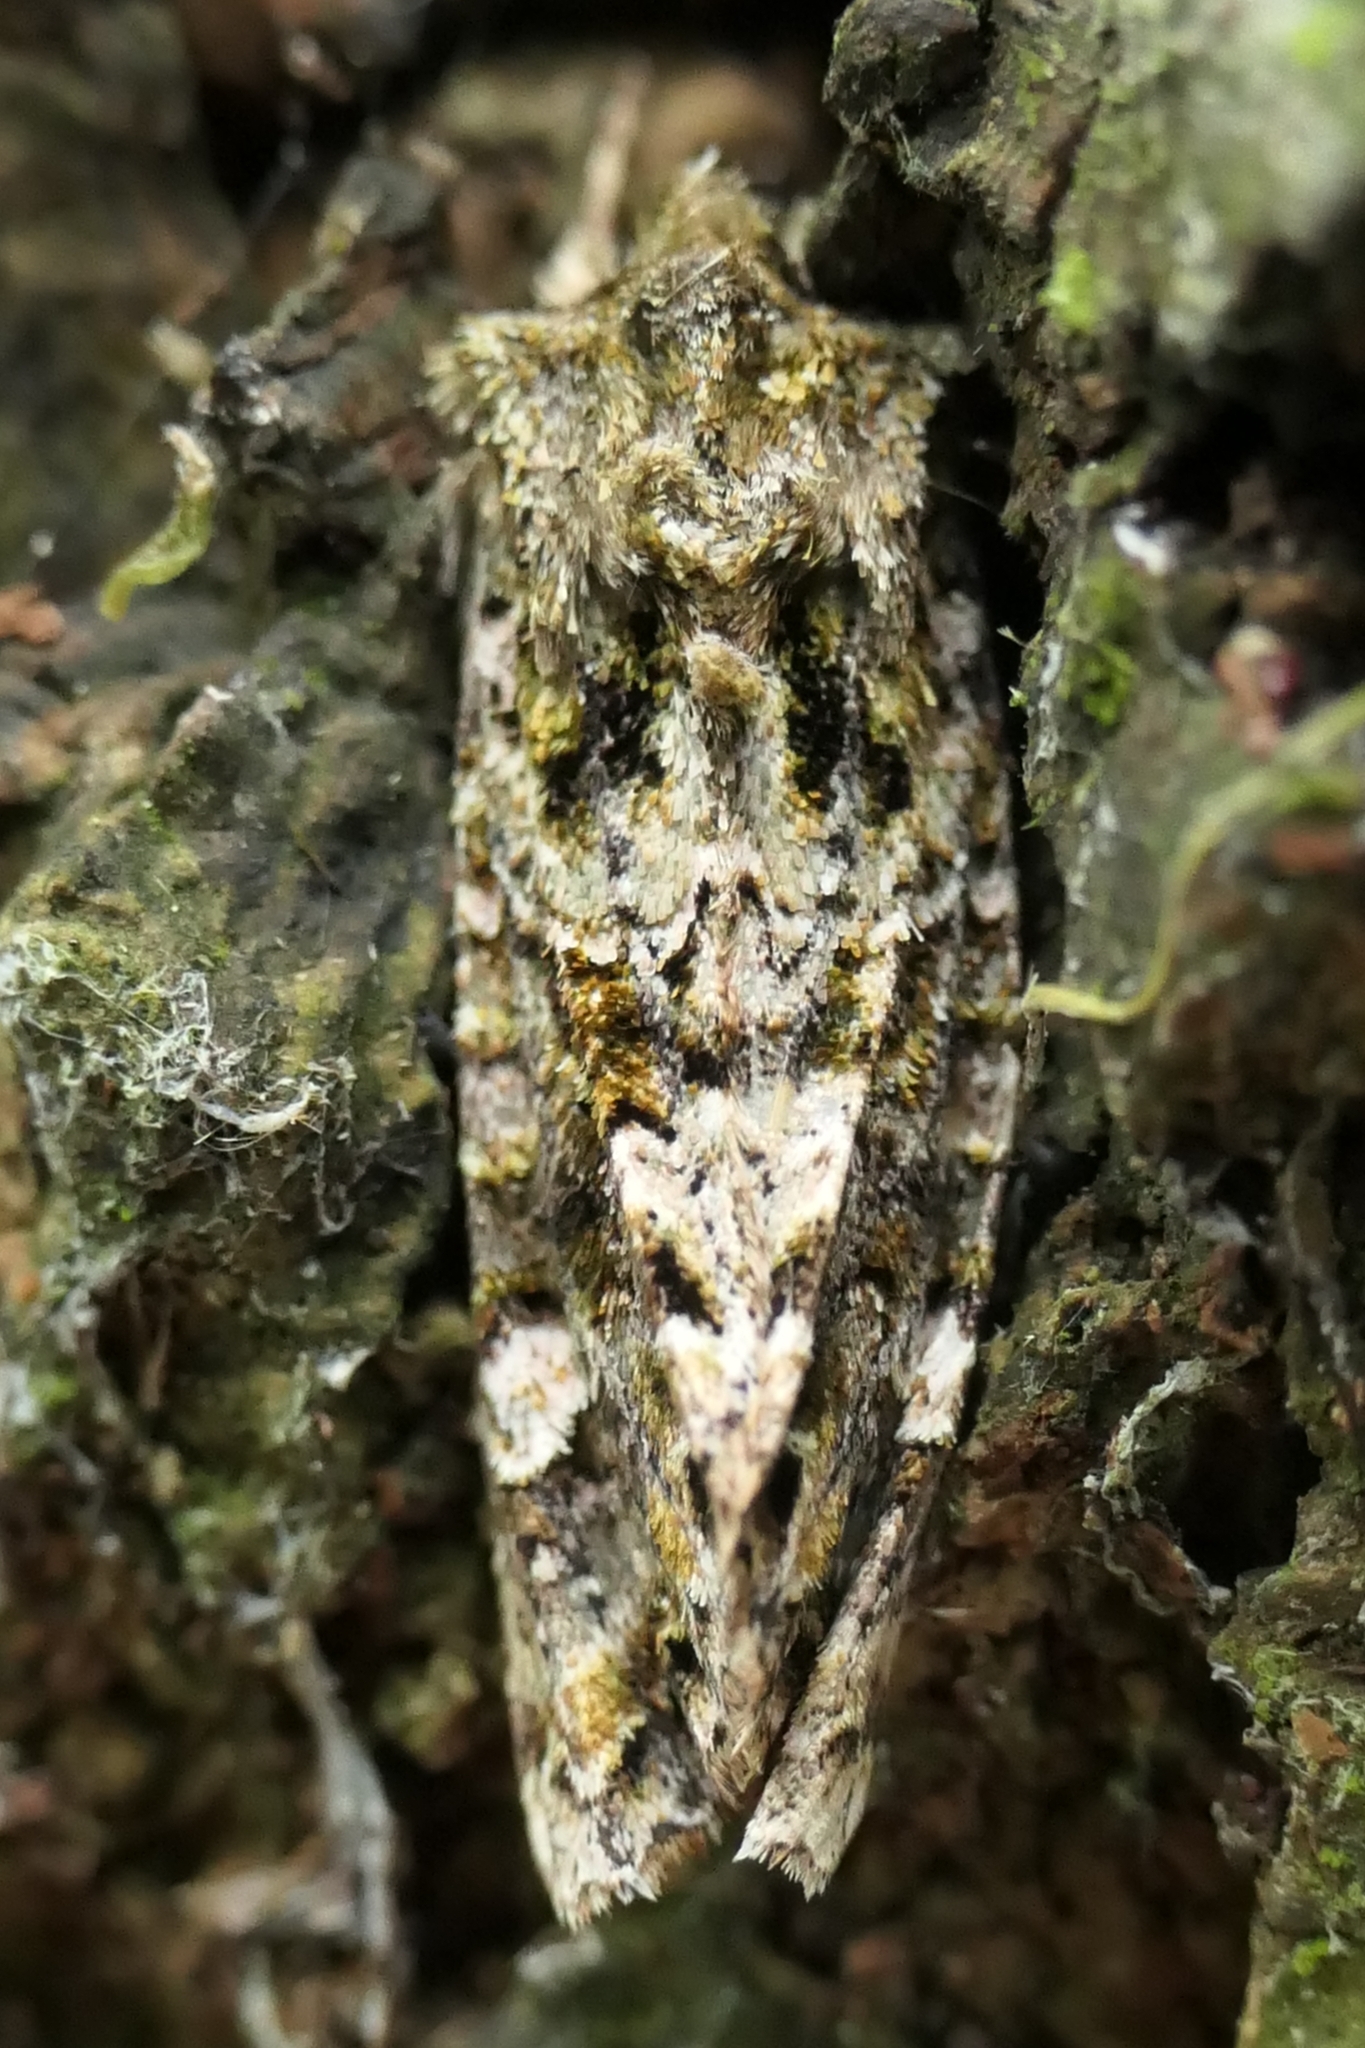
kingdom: Animalia
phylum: Arthropoda
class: Insecta
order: Lepidoptera
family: Noctuidae
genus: Ichneutica
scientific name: Ichneutica
